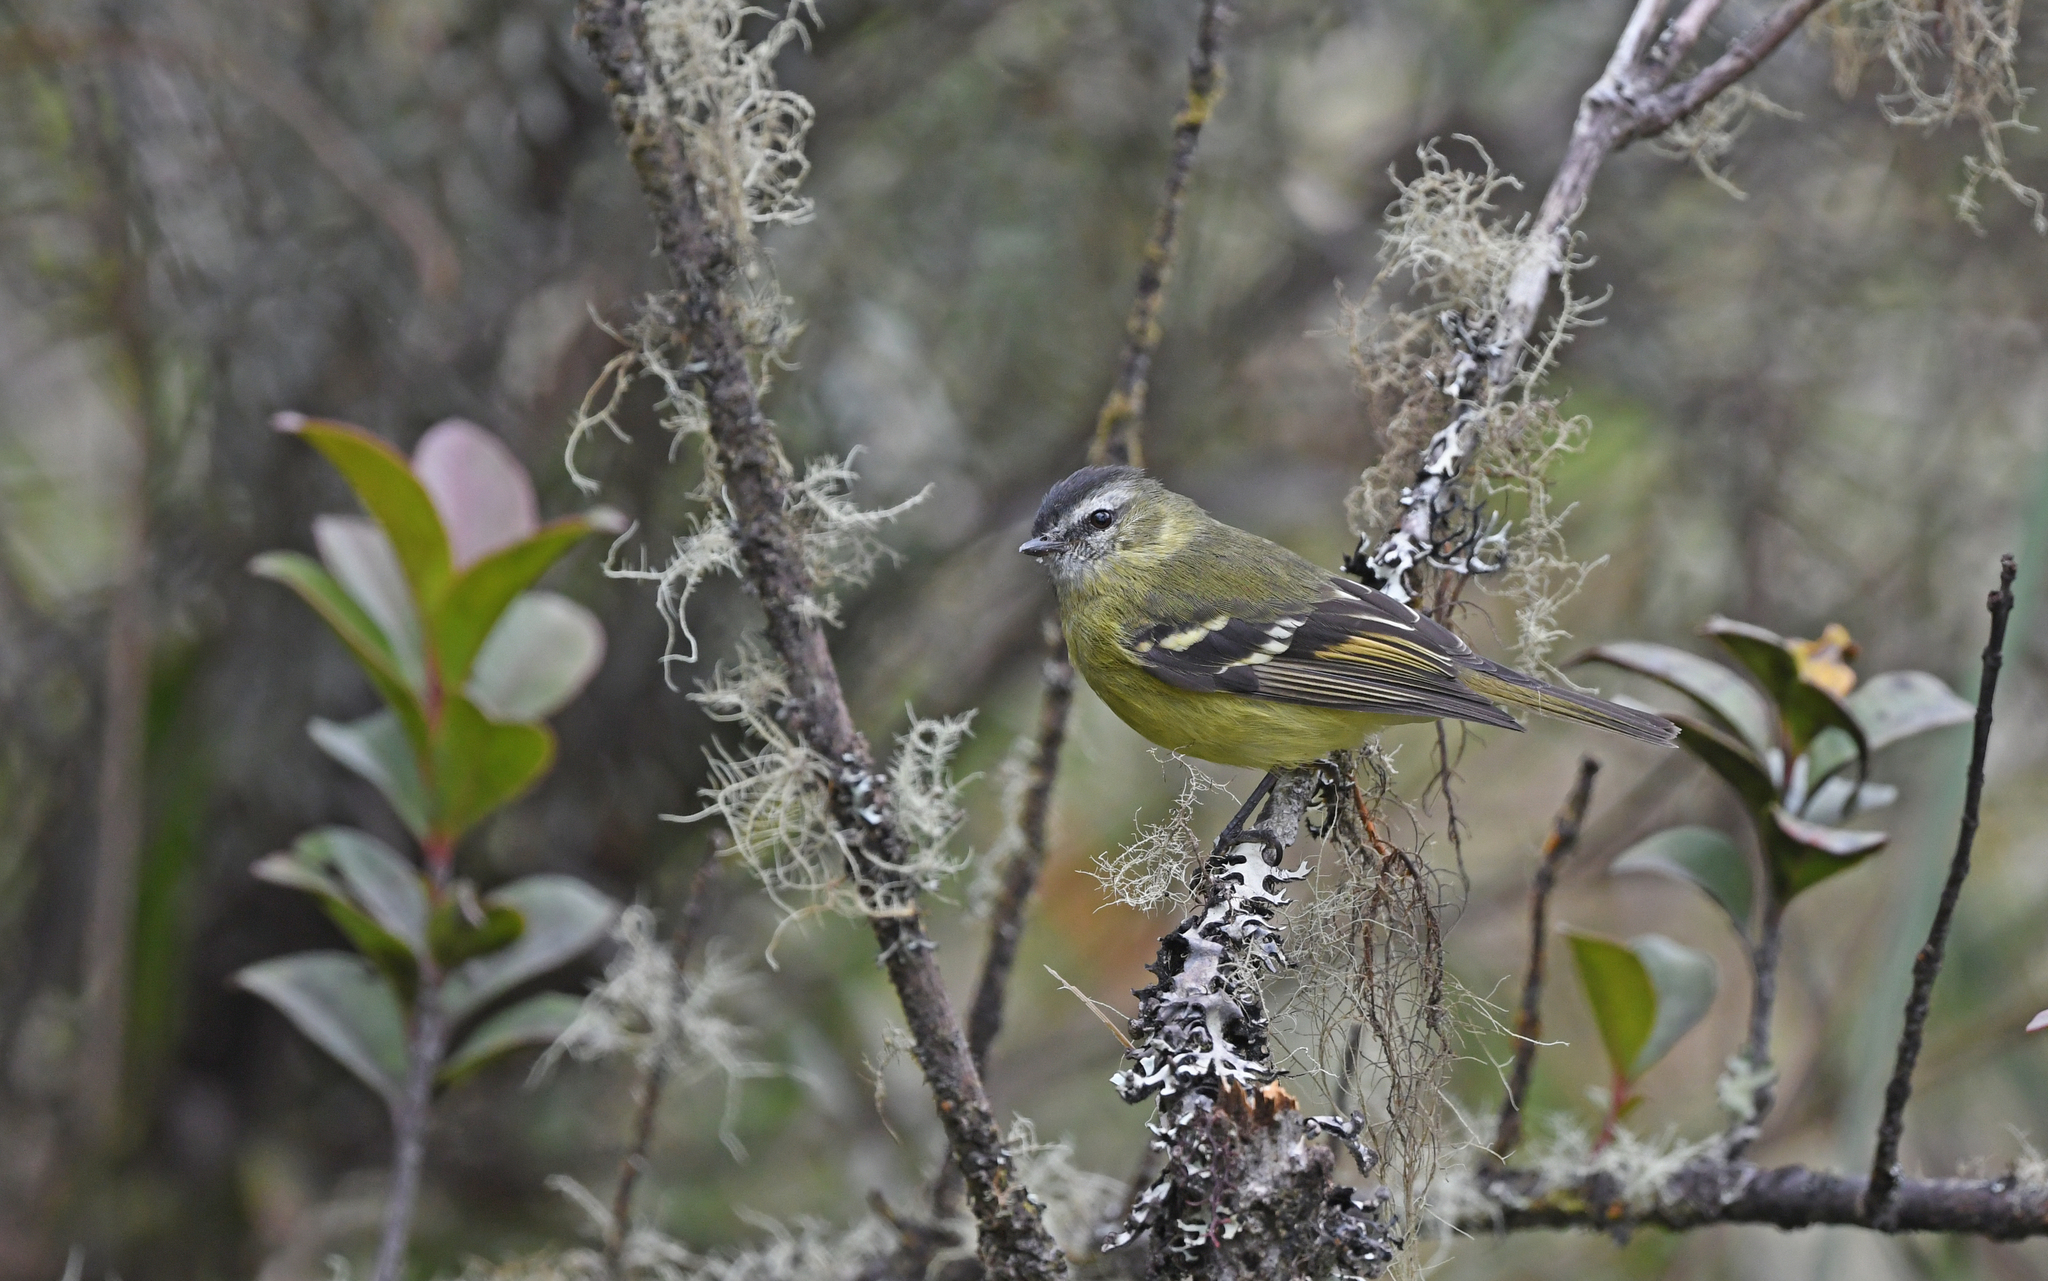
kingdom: Animalia
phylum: Chordata
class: Aves
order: Passeriformes
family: Tyrannidae
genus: Phyllomyias
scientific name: Phyllomyias nigrocapillus
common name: Black-capped tyrannulet
